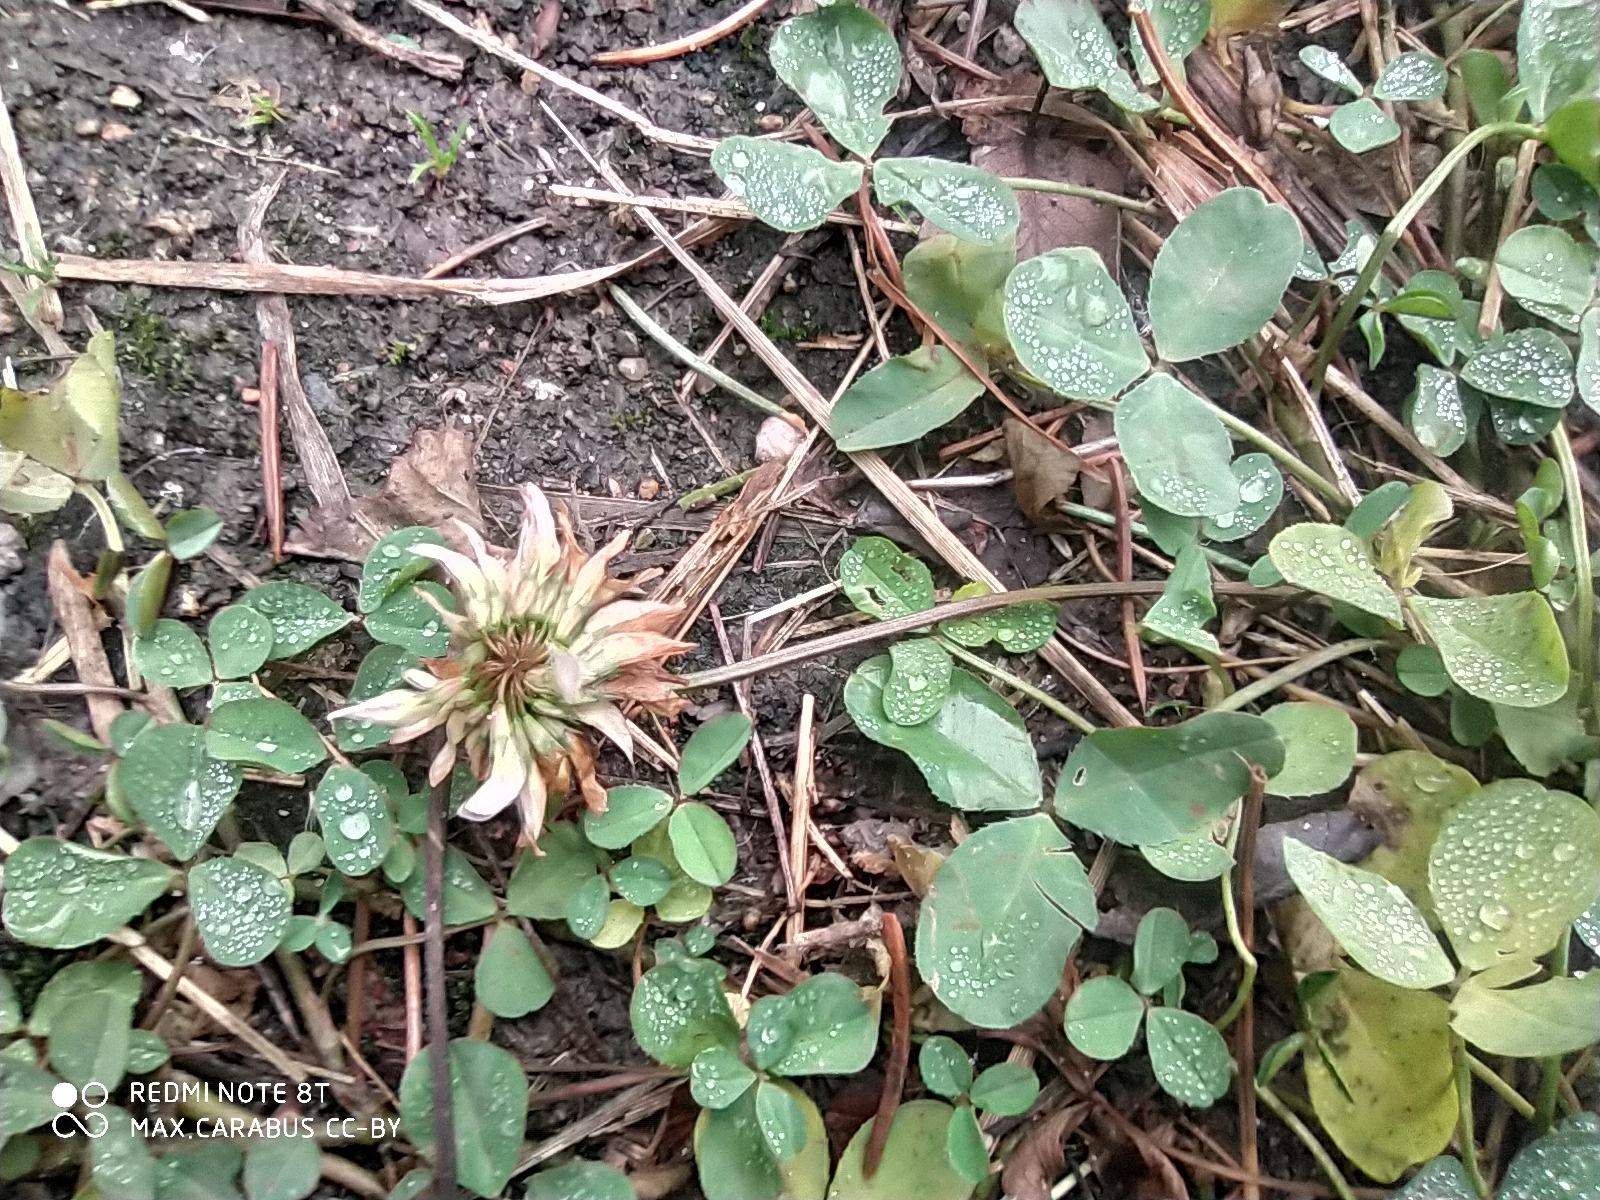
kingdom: Plantae
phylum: Tracheophyta
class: Magnoliopsida
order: Fabales
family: Fabaceae
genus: Trifolium
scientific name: Trifolium repens
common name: White clover
